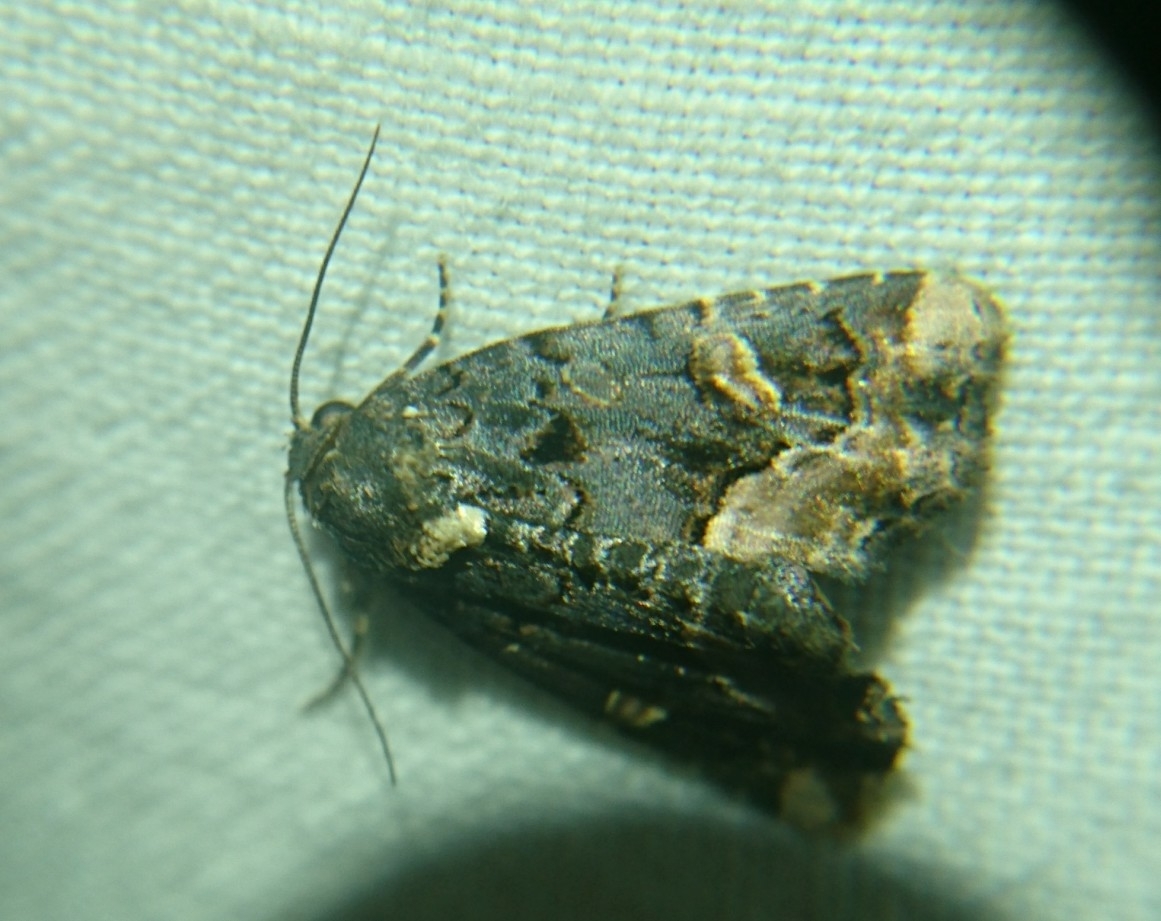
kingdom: Animalia
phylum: Arthropoda
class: Insecta
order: Lepidoptera
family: Noctuidae
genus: Homophoberia
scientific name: Homophoberia apicosa
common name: Black wedge-spot
